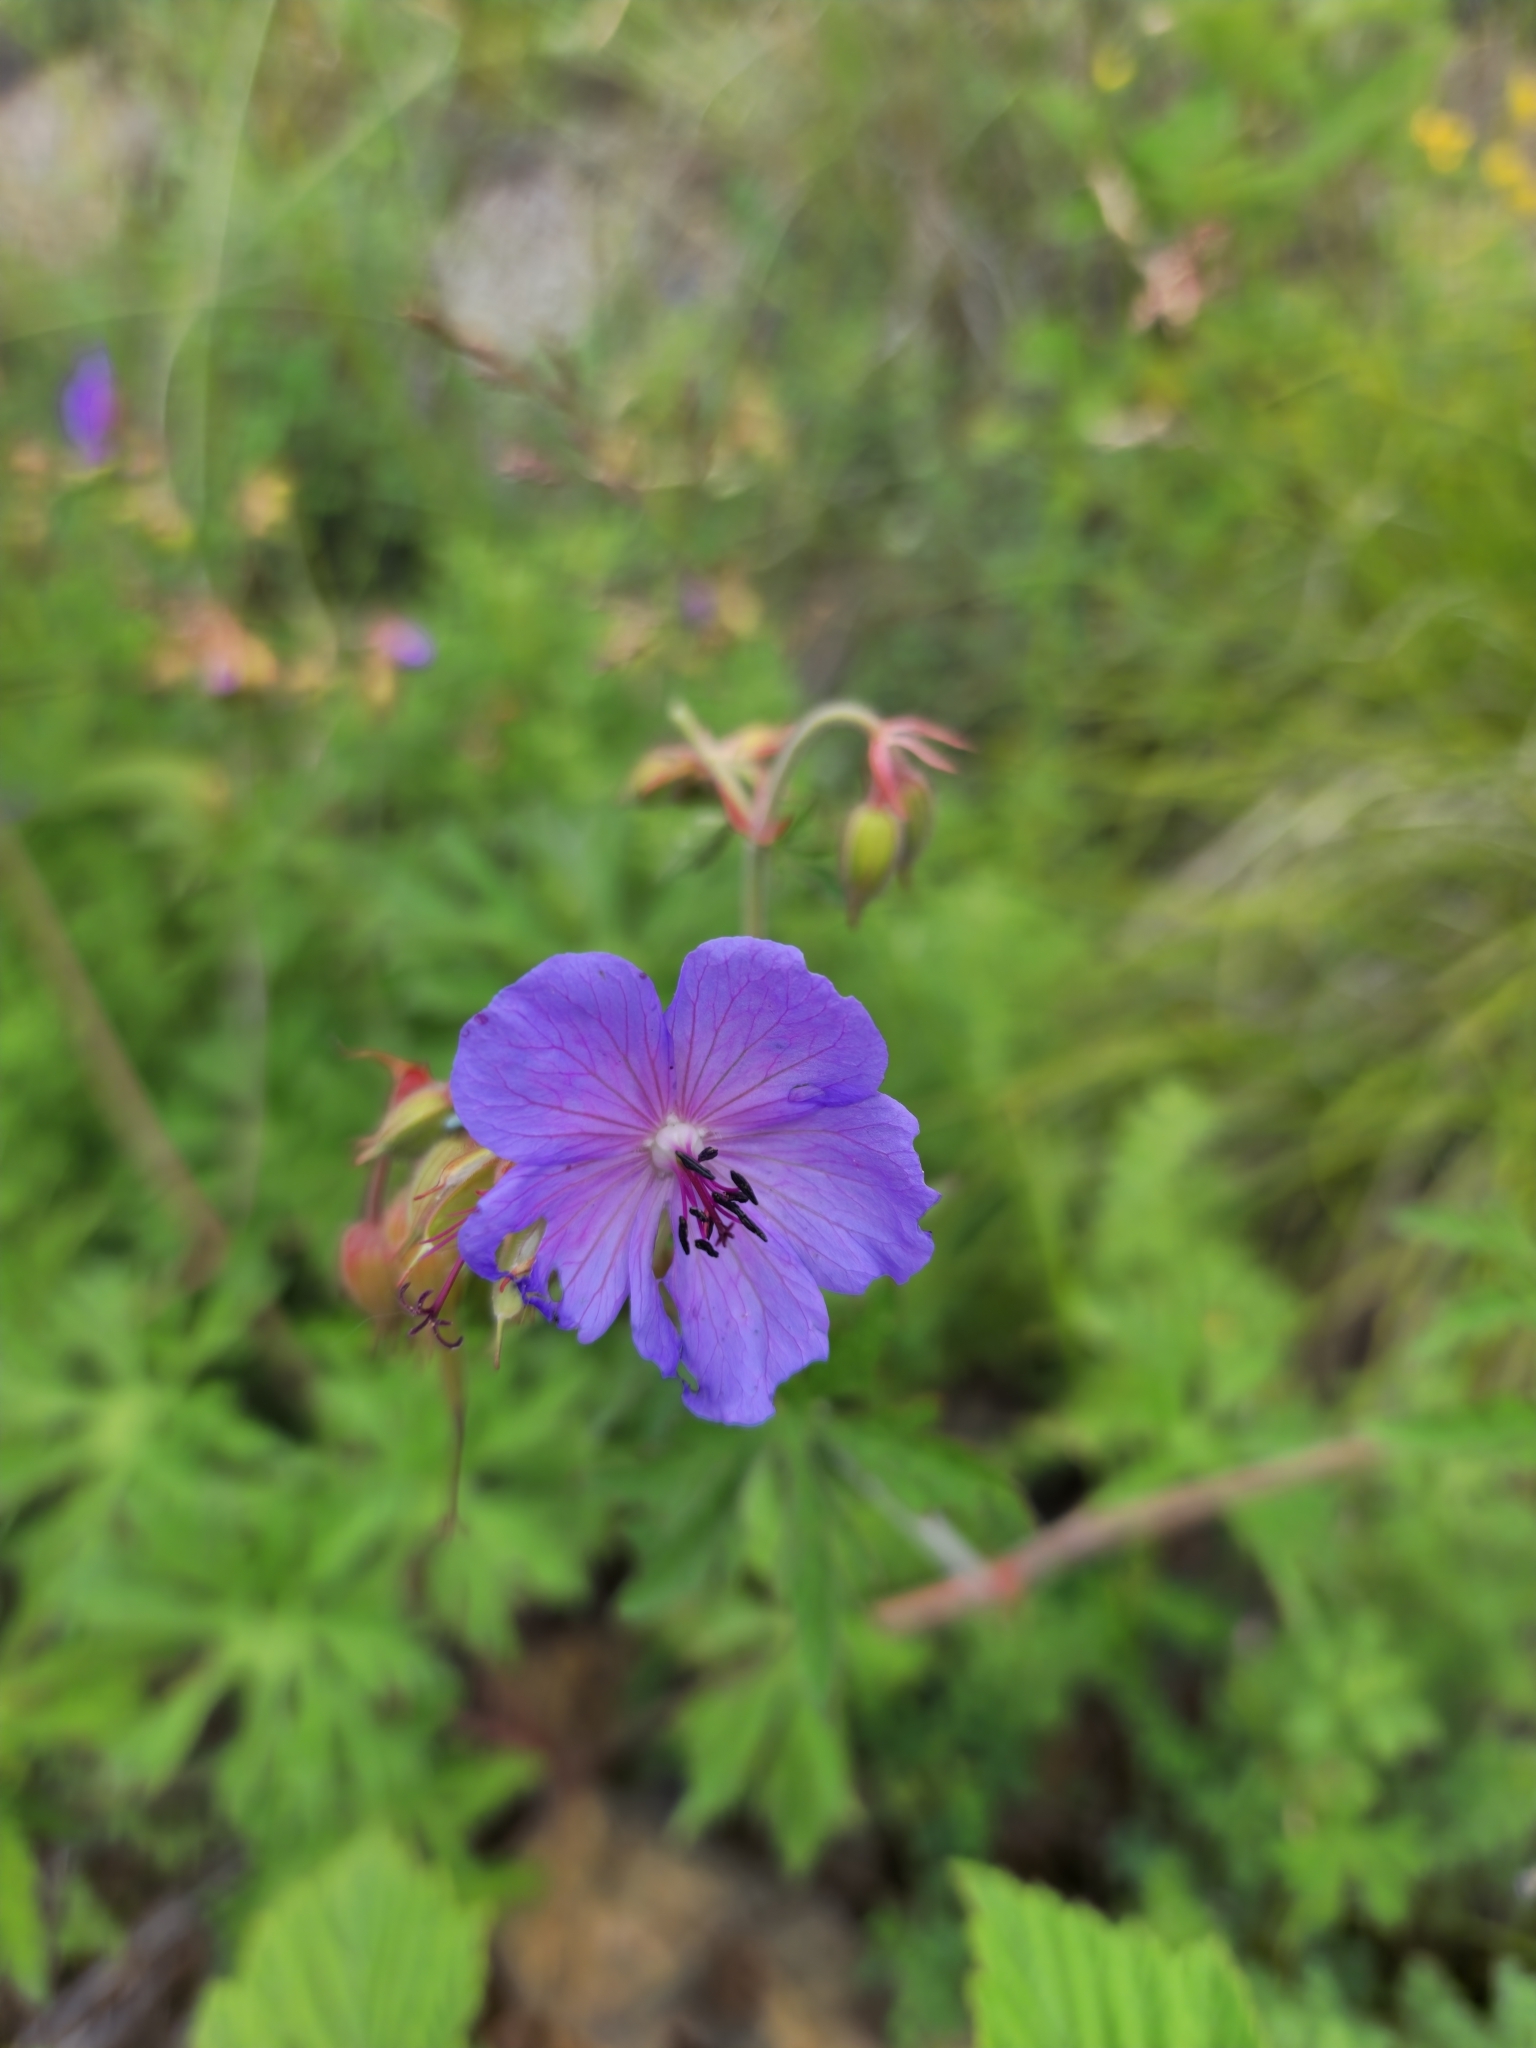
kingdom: Plantae
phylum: Tracheophyta
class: Magnoliopsida
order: Geraniales
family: Geraniaceae
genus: Geranium
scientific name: Geranium ruprechtii
